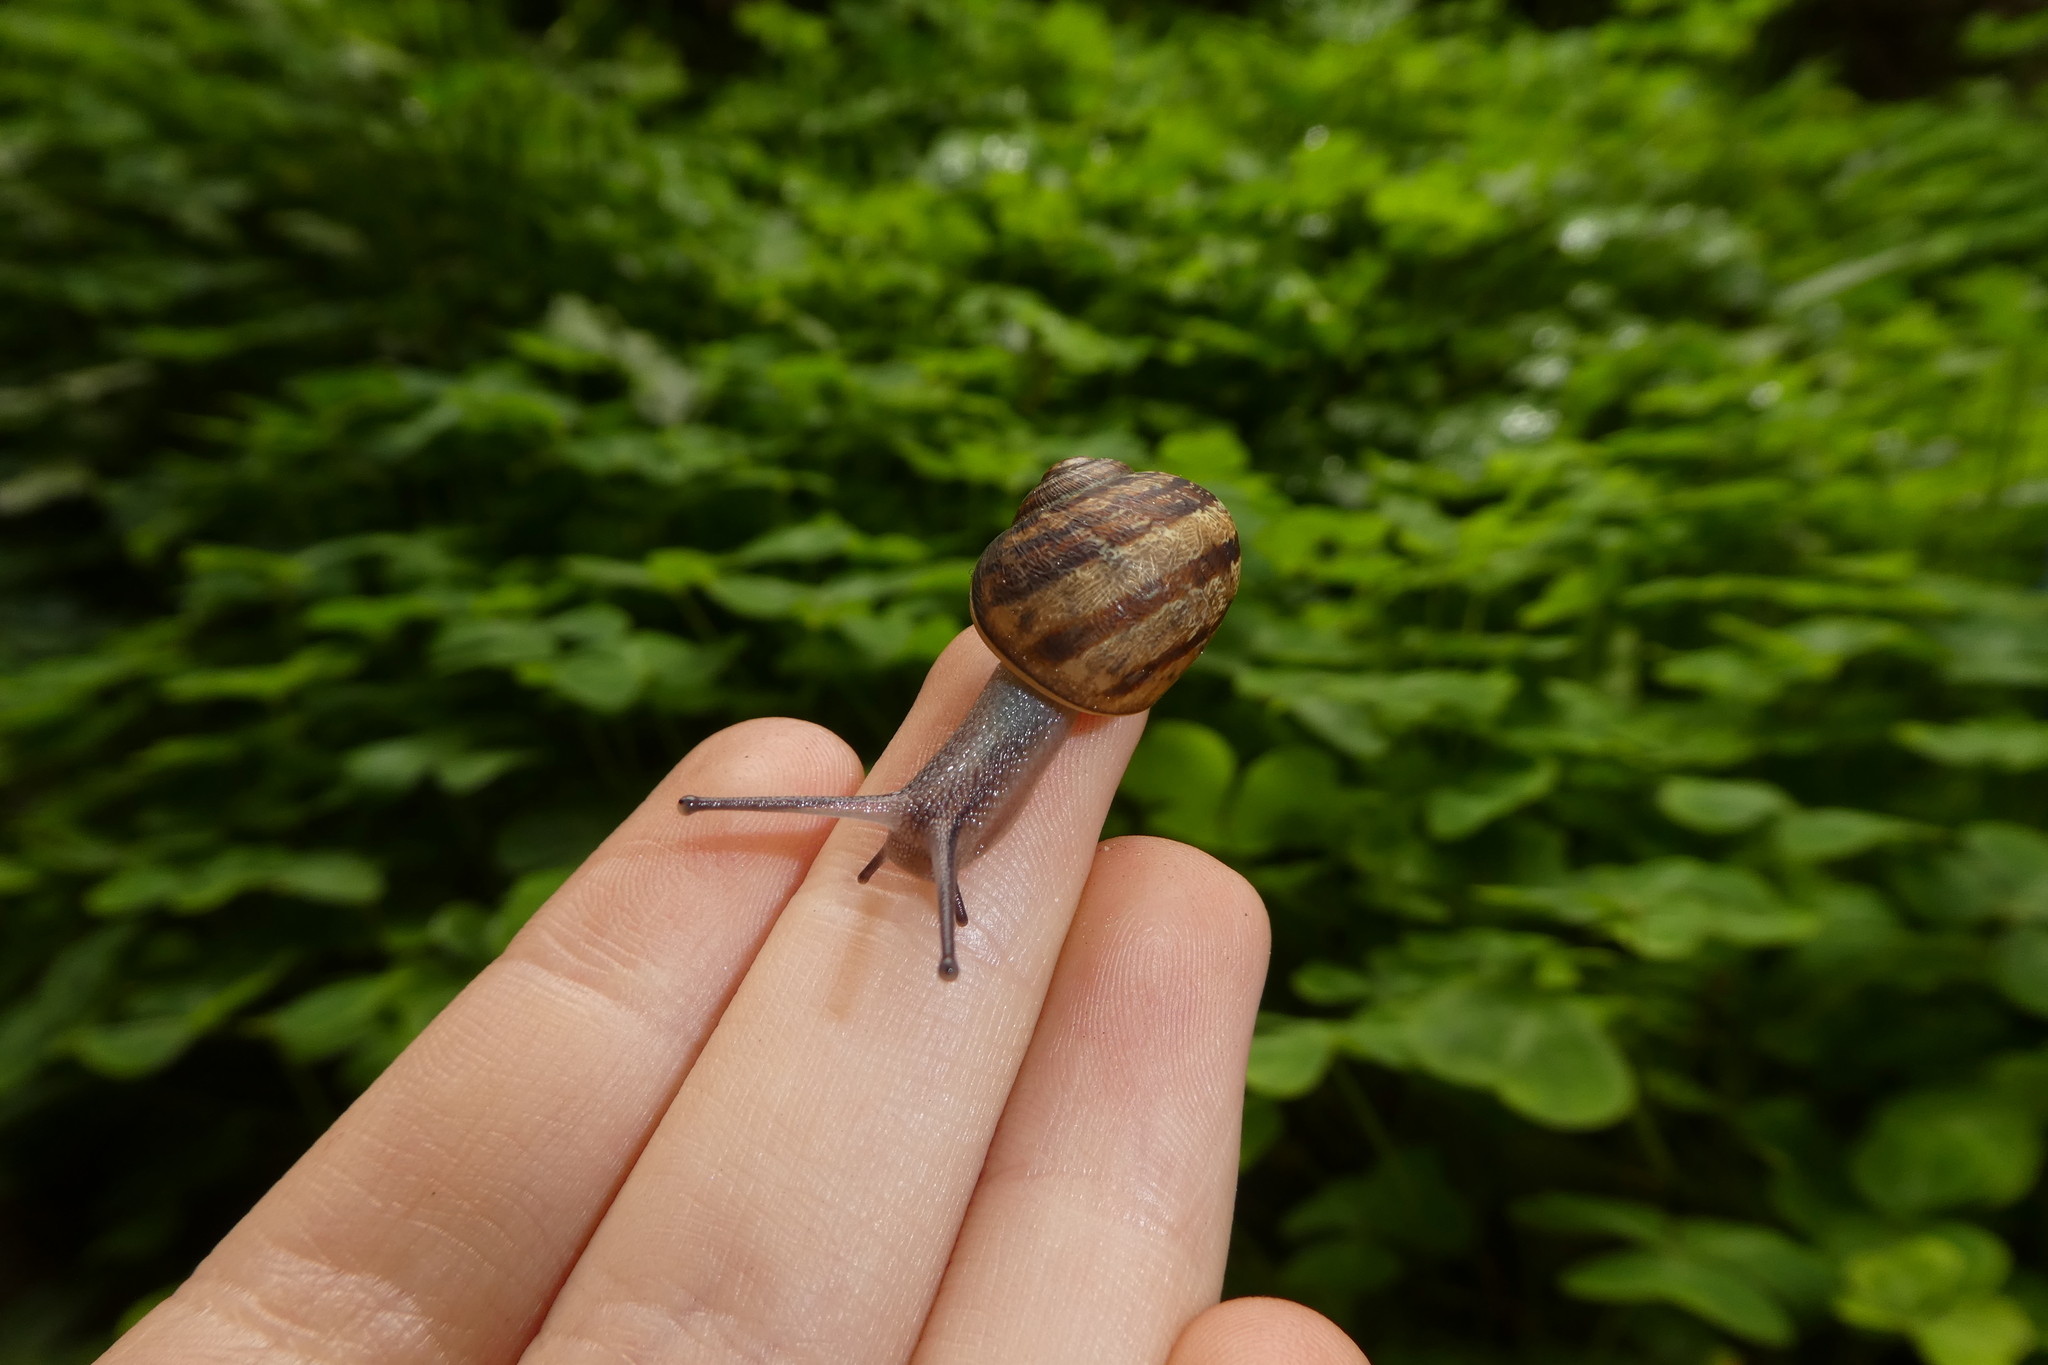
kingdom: Animalia
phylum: Mollusca
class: Gastropoda
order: Stylommatophora
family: Helicidae
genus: Cornu
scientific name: Cornu aspersum
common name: Brown garden snail
